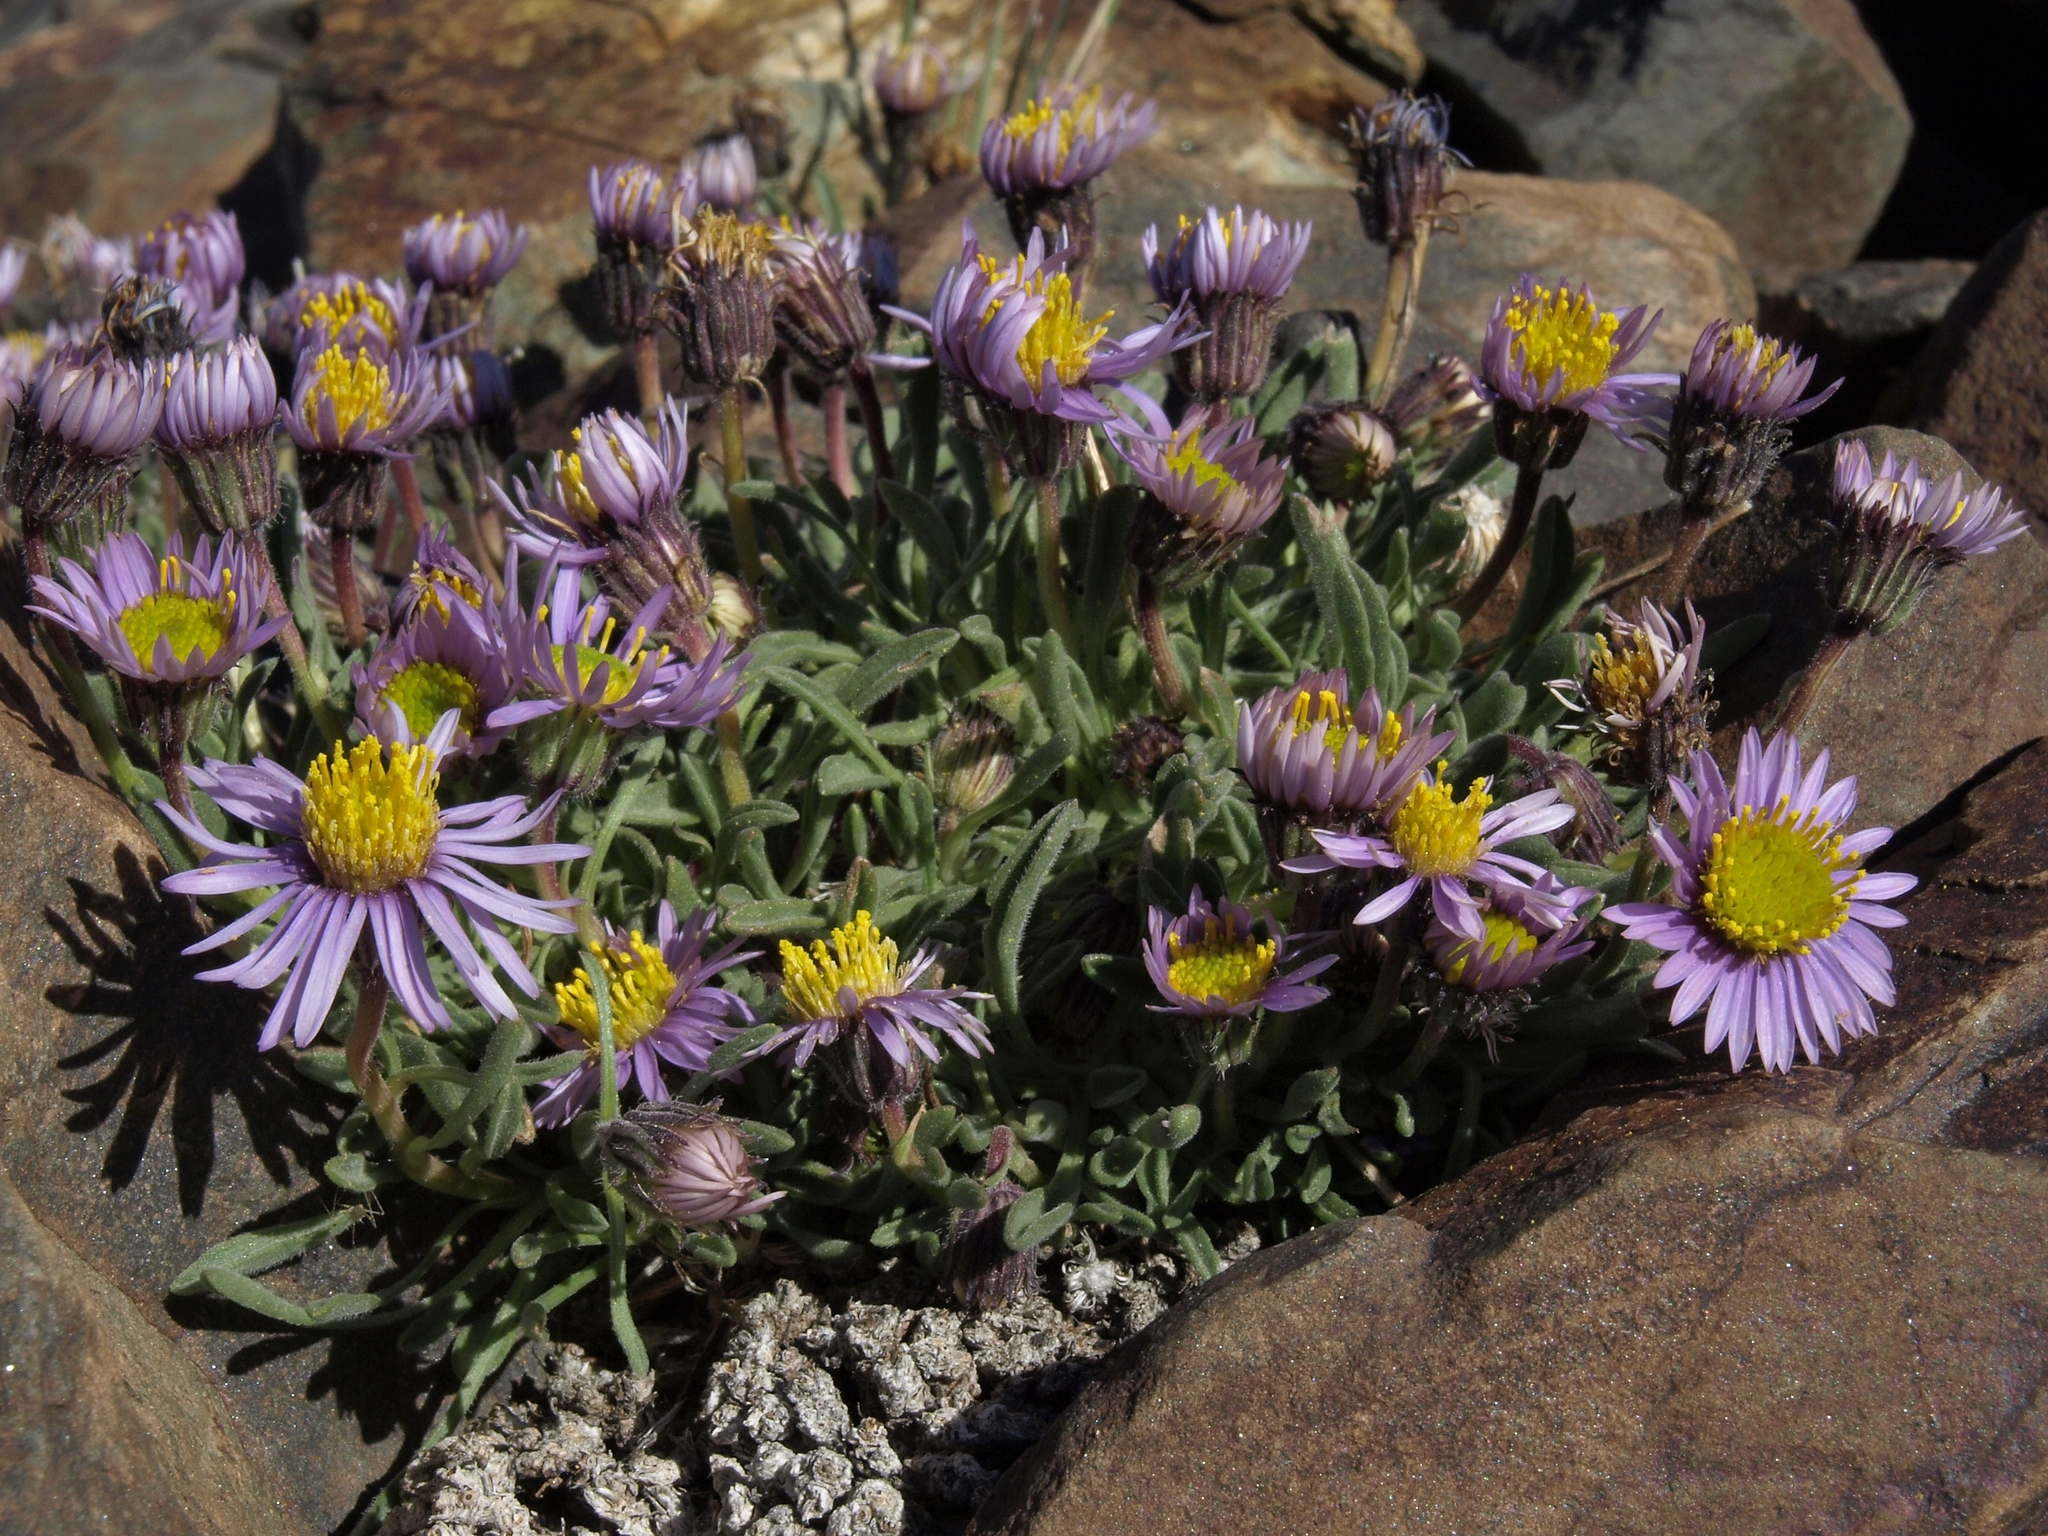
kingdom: Plantae
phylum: Tracheophyta
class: Magnoliopsida
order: Asterales
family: Asteraceae
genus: Erigeron
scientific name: Erigeron pygmaeus
